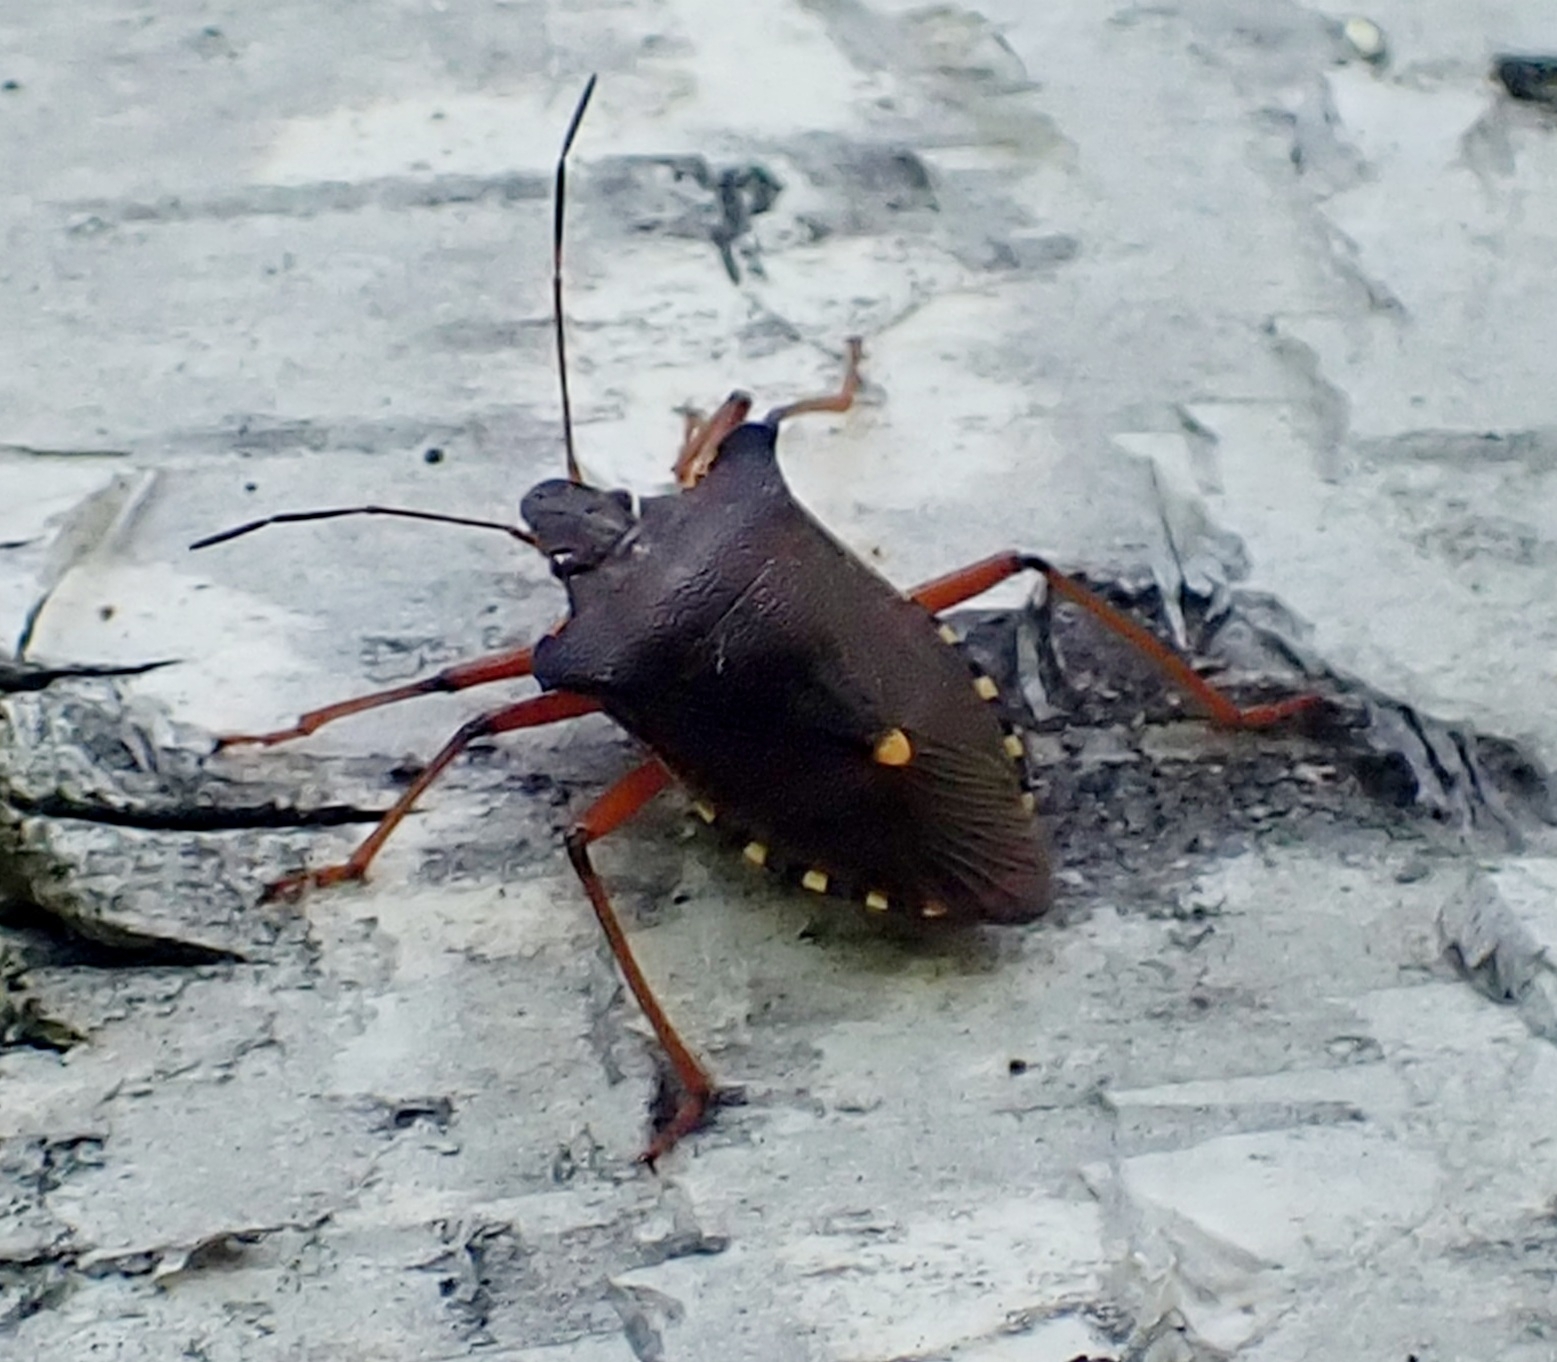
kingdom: Animalia
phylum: Arthropoda
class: Insecta
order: Hemiptera
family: Pentatomidae
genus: Pentatoma
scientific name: Pentatoma rufipes
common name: Forest bug
